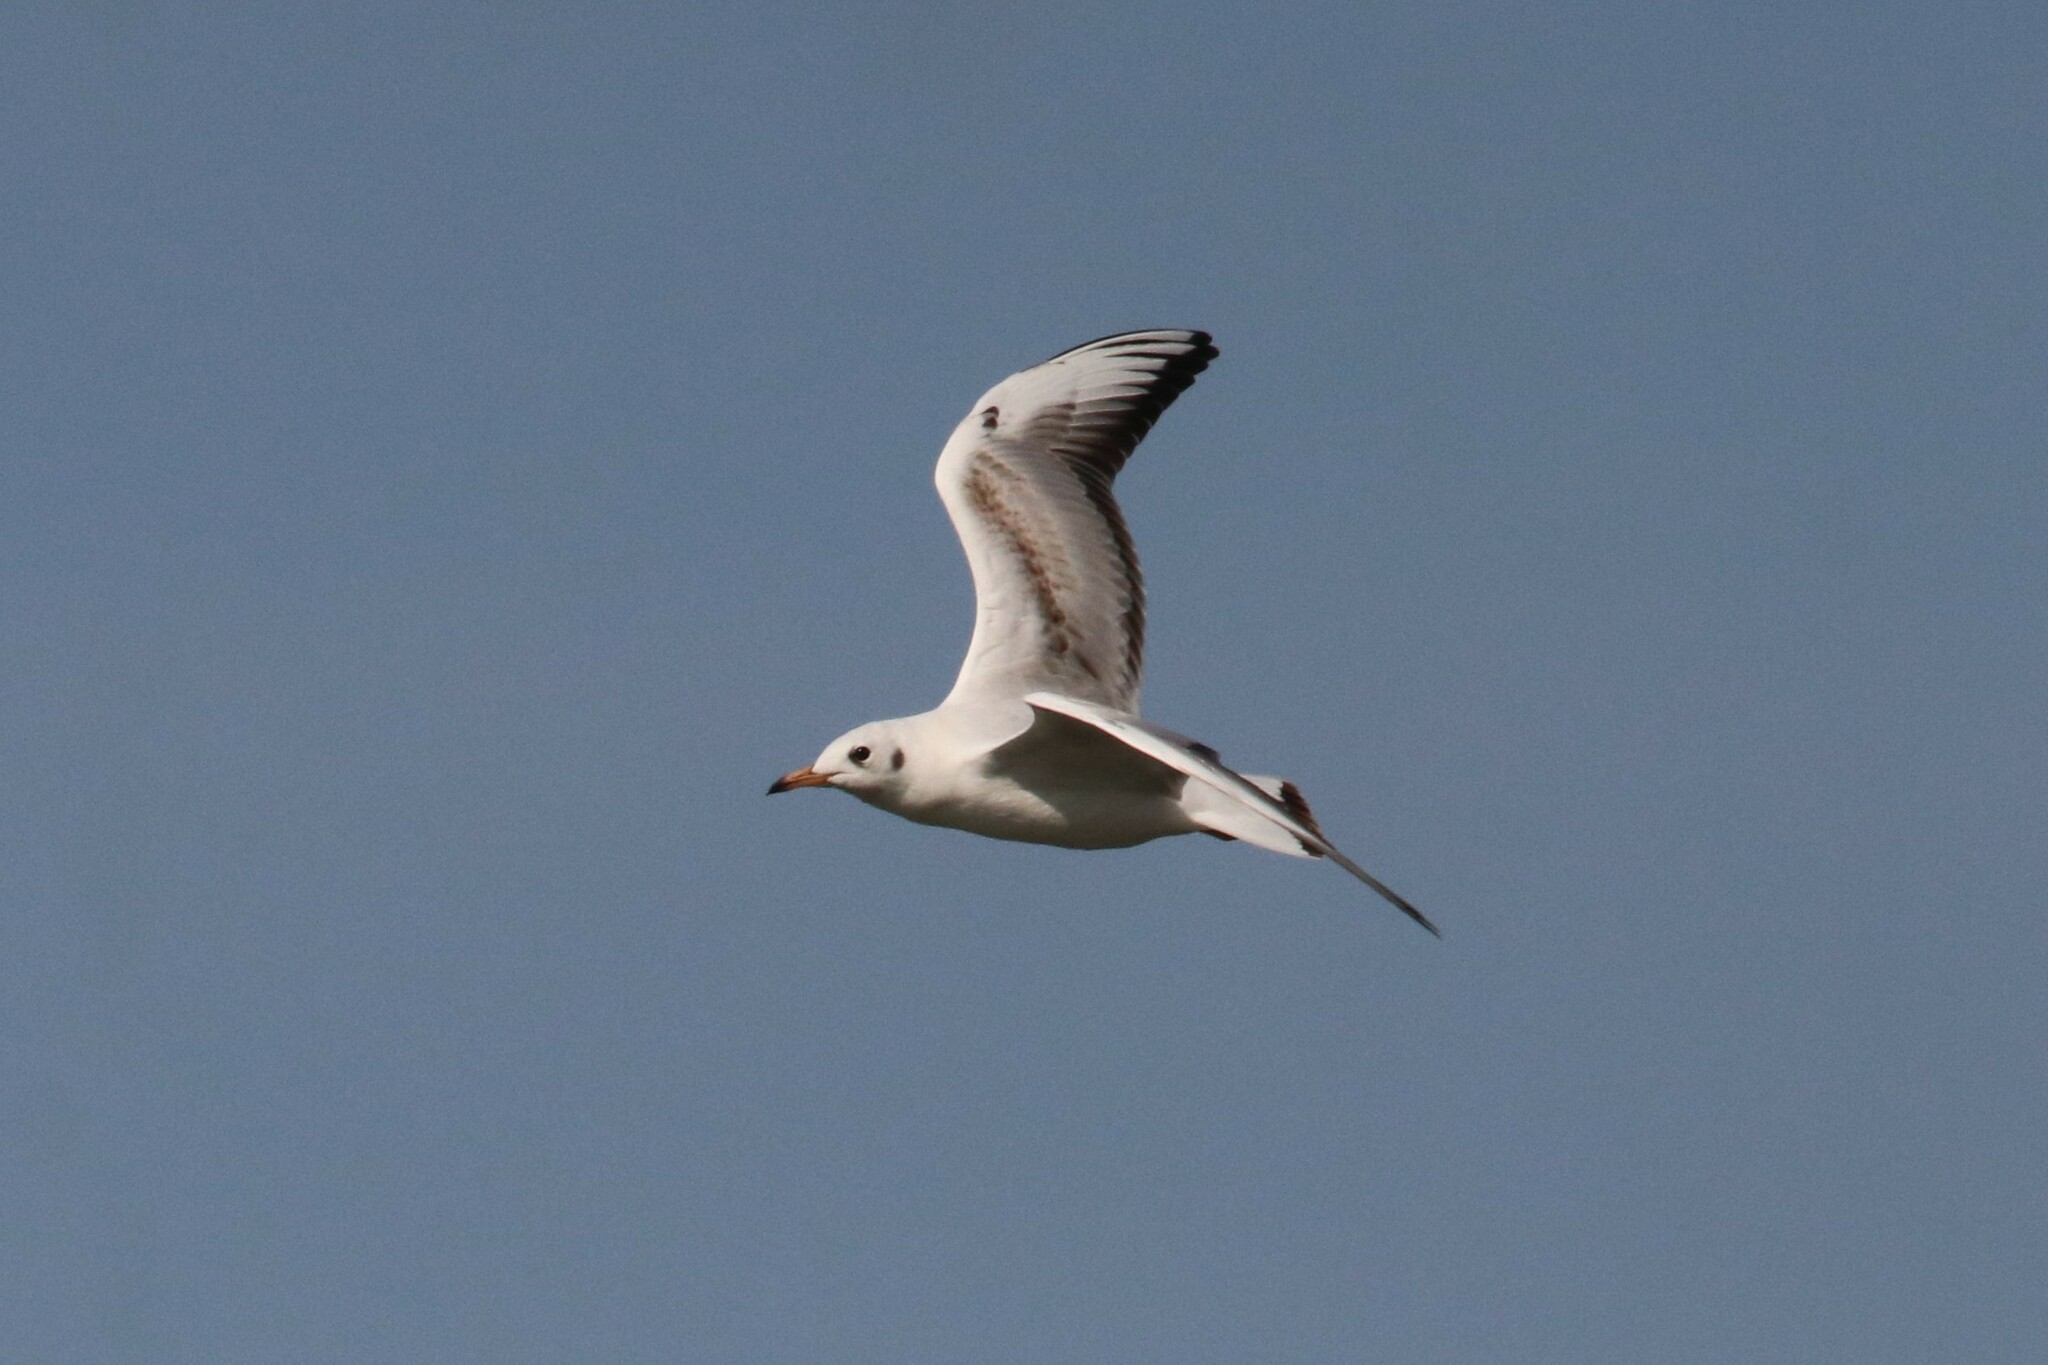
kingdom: Animalia
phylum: Chordata
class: Aves
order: Charadriiformes
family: Laridae
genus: Chroicocephalus
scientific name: Chroicocephalus ridibundus
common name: Black-headed gull
